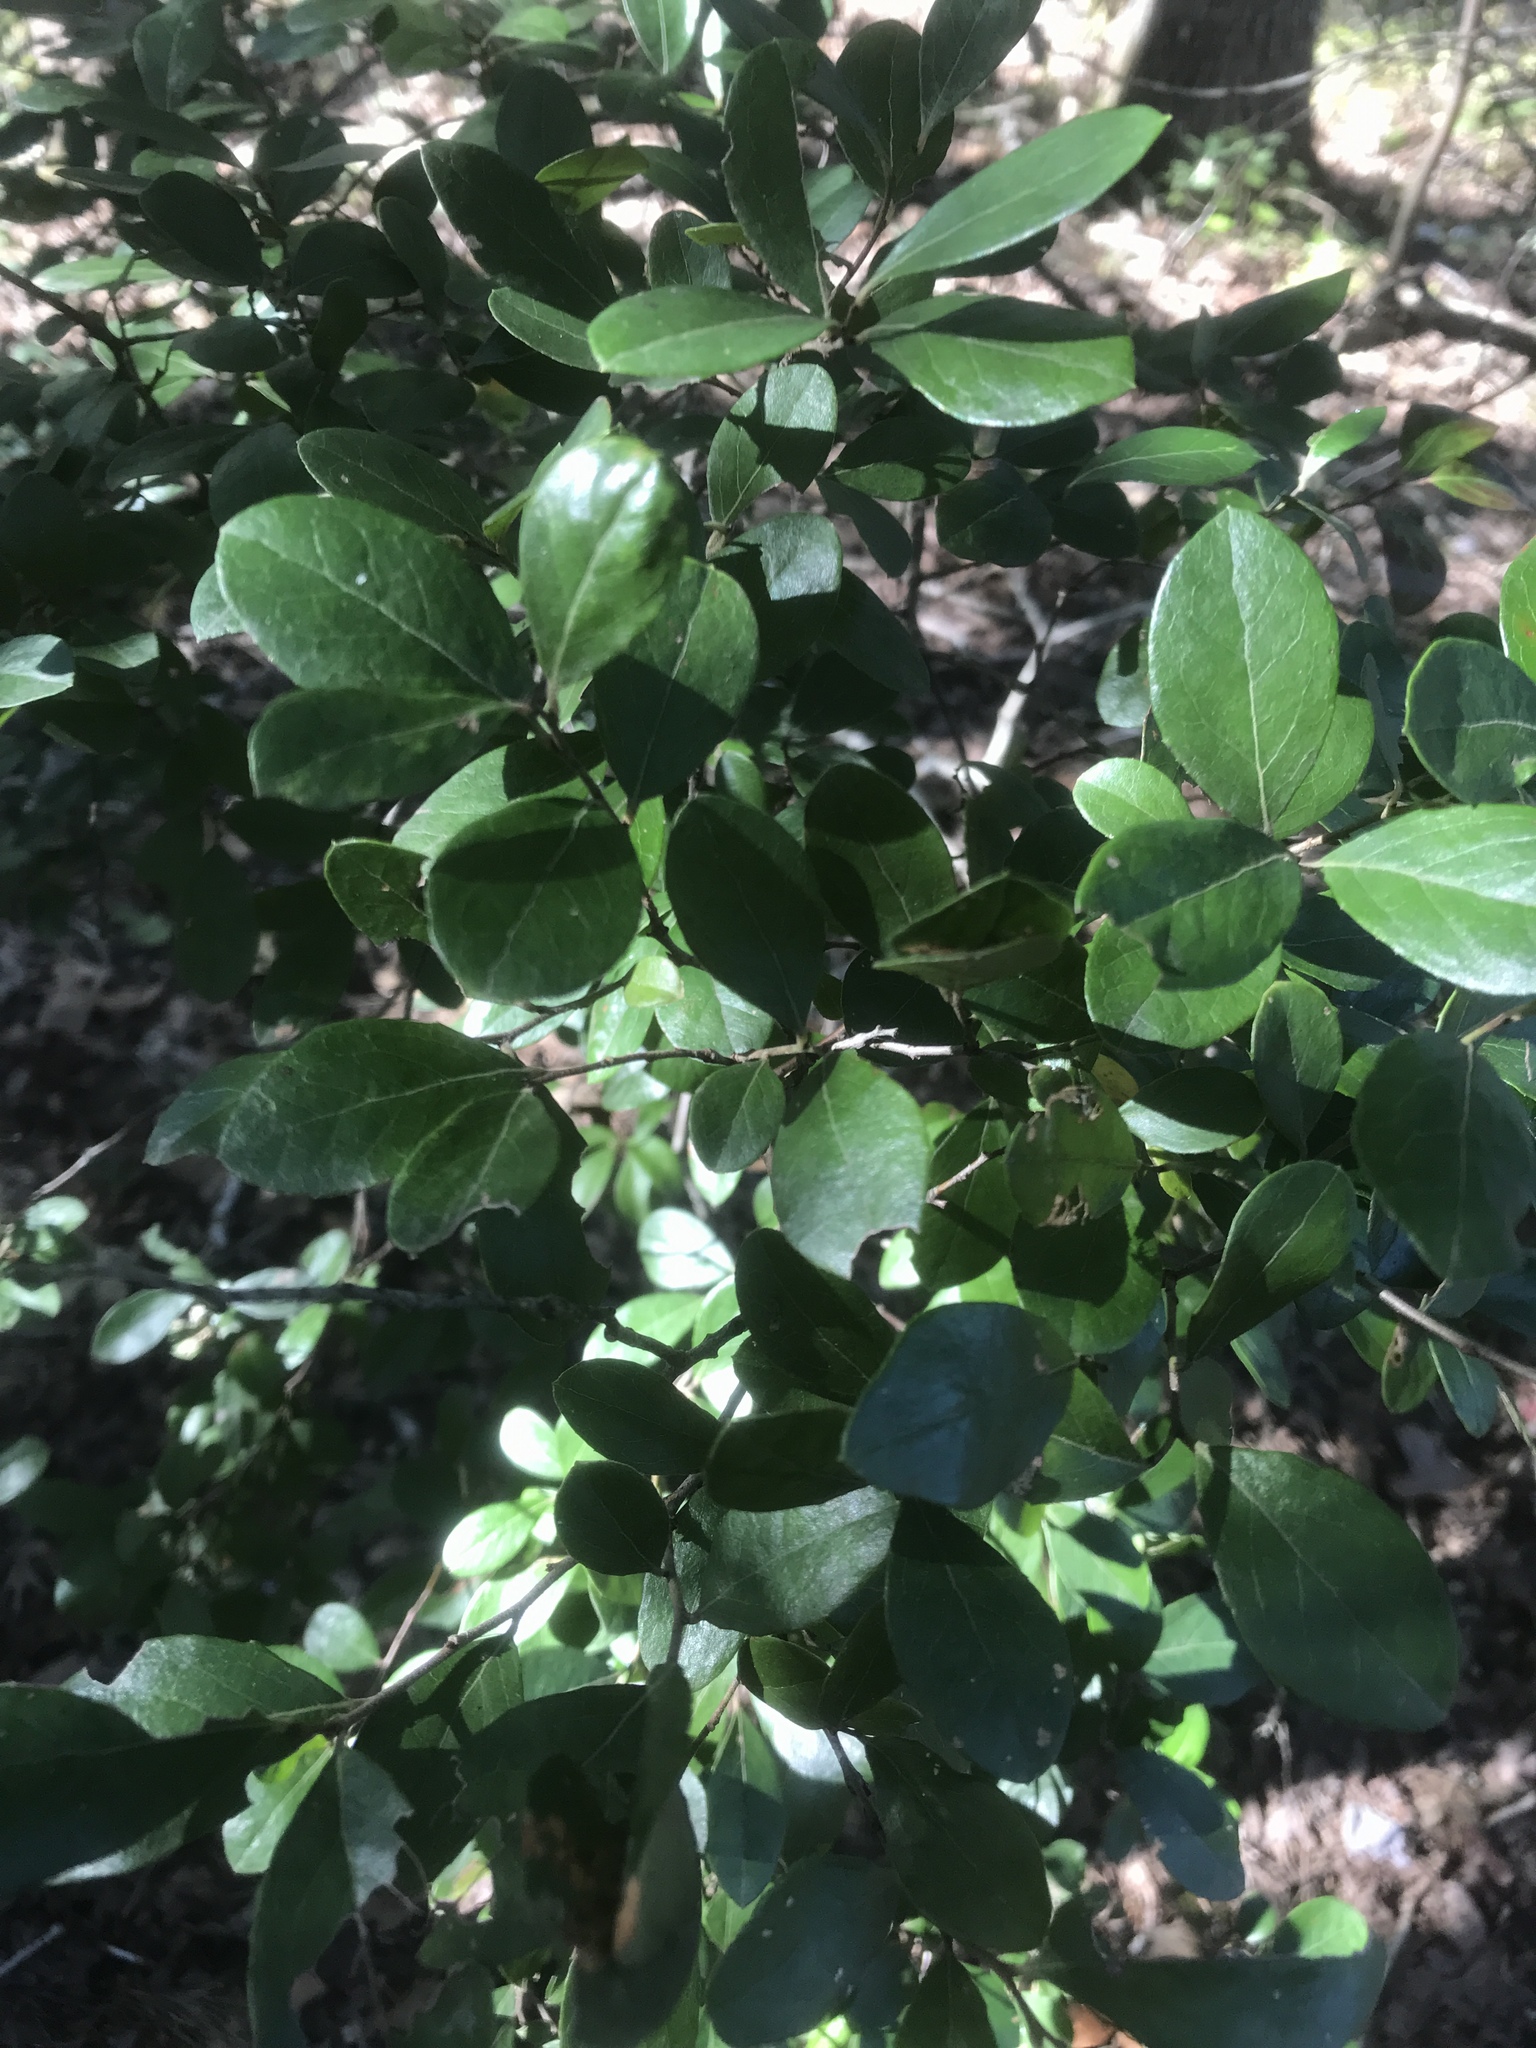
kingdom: Plantae
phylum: Tracheophyta
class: Magnoliopsida
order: Ericales
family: Ericaceae
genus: Vaccinium
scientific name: Vaccinium arboreum
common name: Farkleberry
